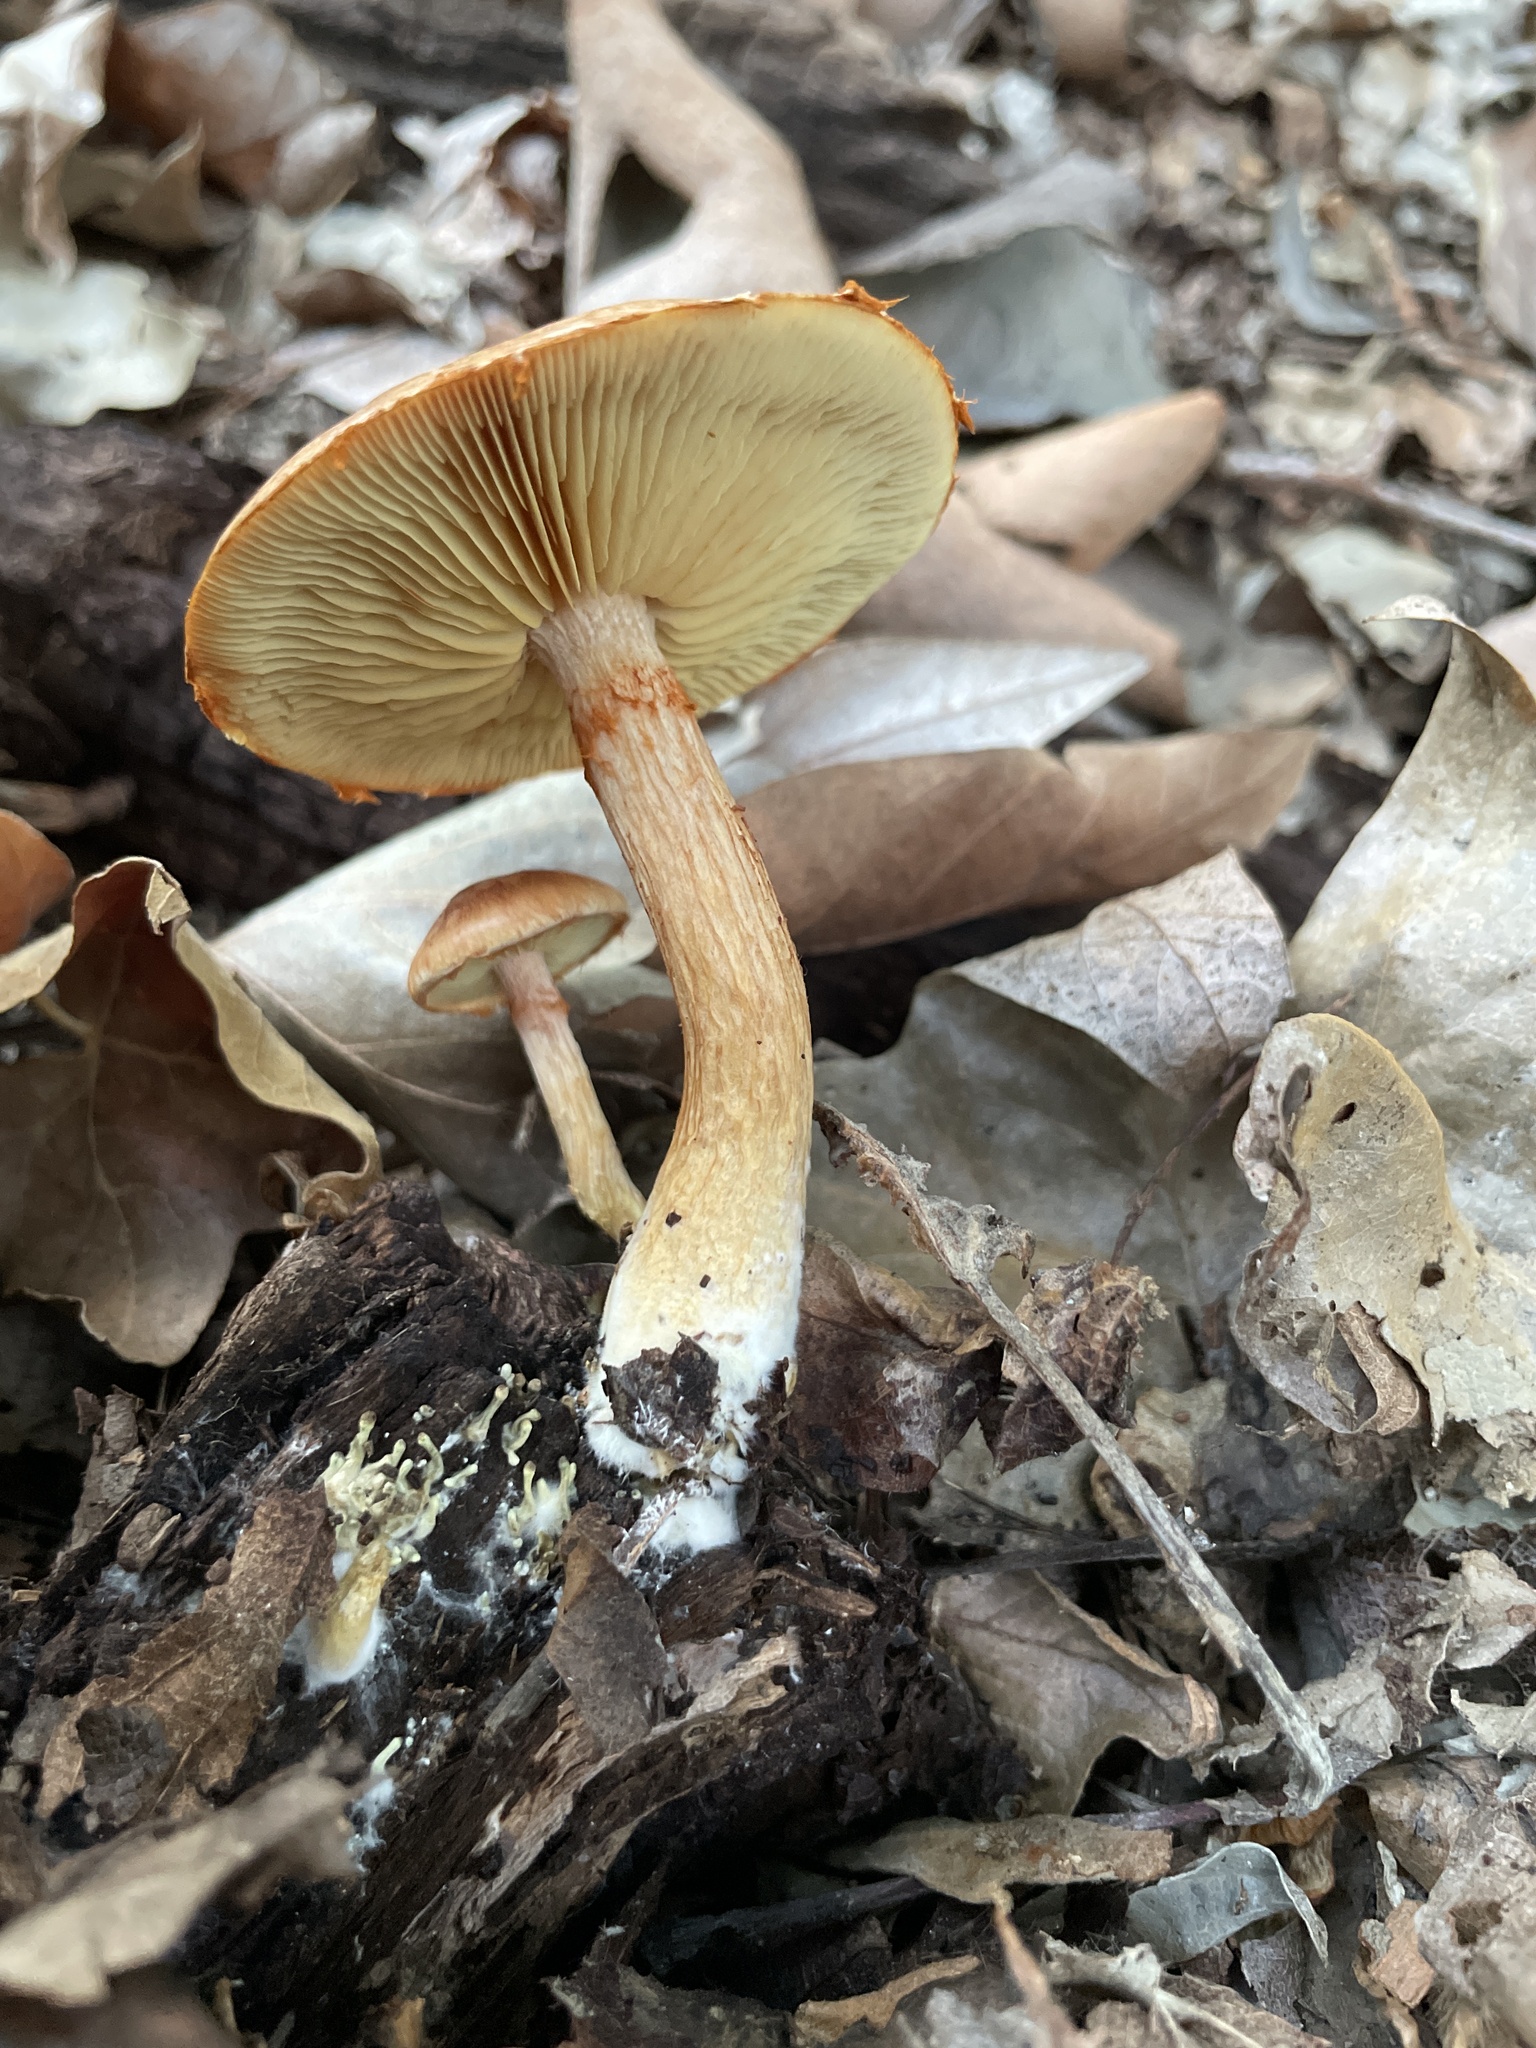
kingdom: Fungi
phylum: Basidiomycota
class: Agaricomycetes
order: Agaricales
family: Hymenogastraceae
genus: Gymnopilus
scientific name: Gymnopilus luteofolius
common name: Yellow-gilled gymnopilus
